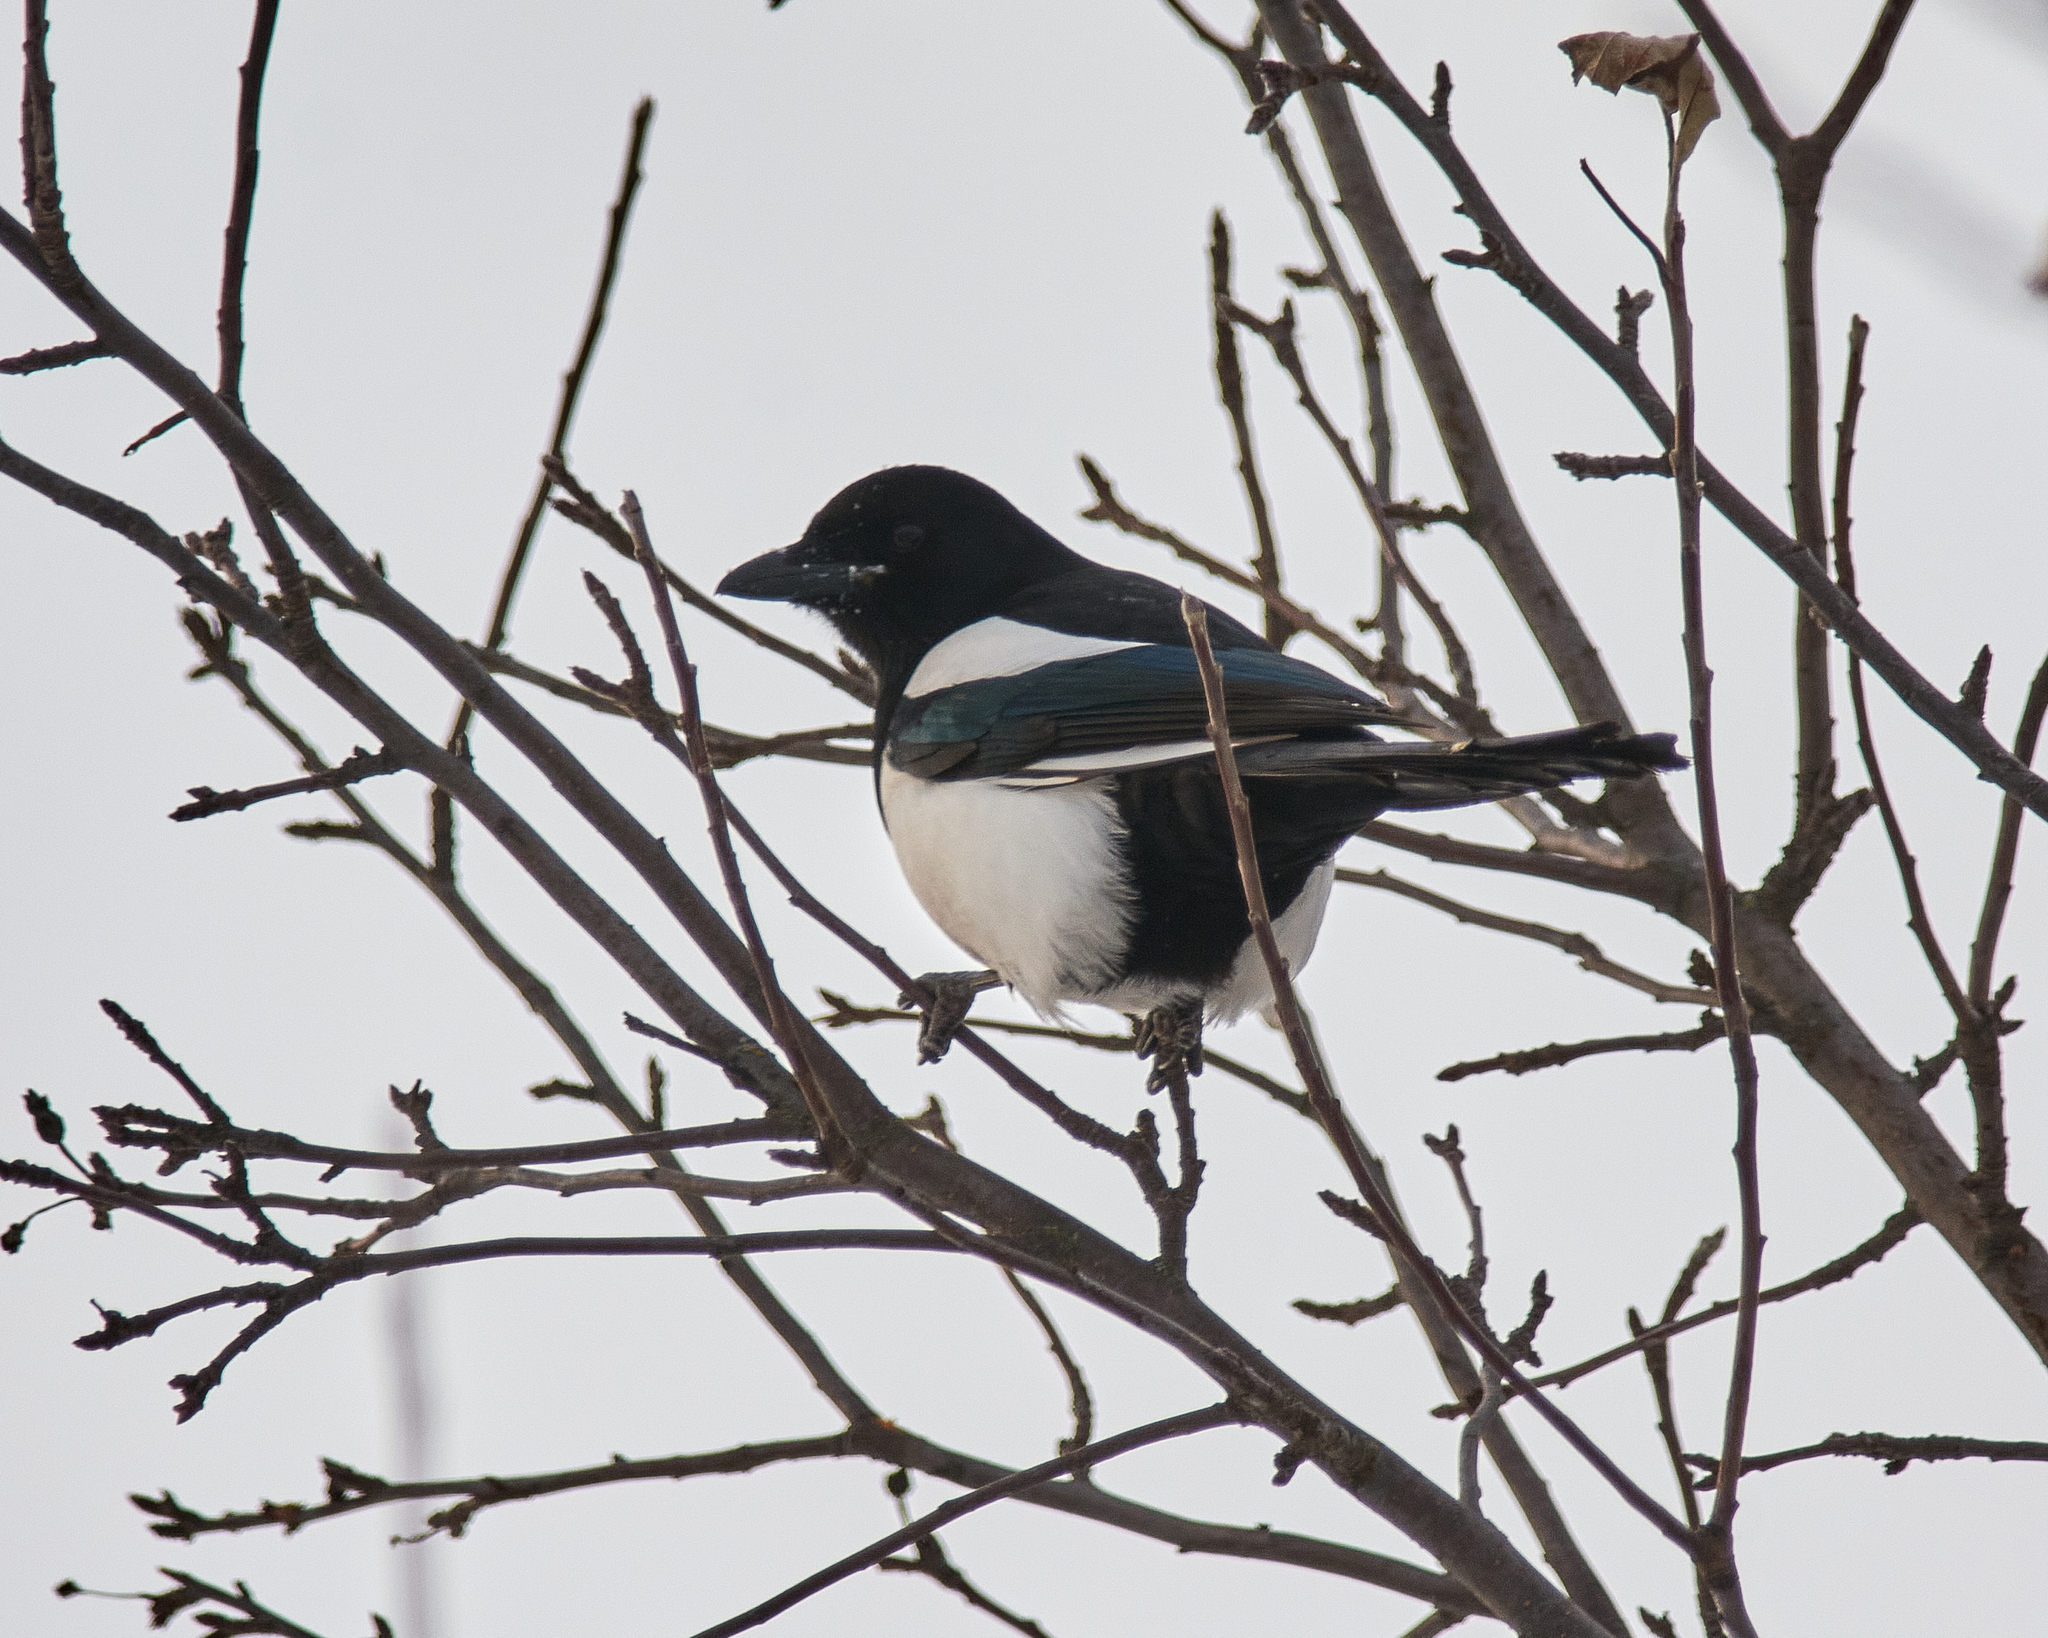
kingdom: Animalia
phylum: Chordata
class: Aves
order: Passeriformes
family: Corvidae
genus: Pica
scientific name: Pica pica
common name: Eurasian magpie
